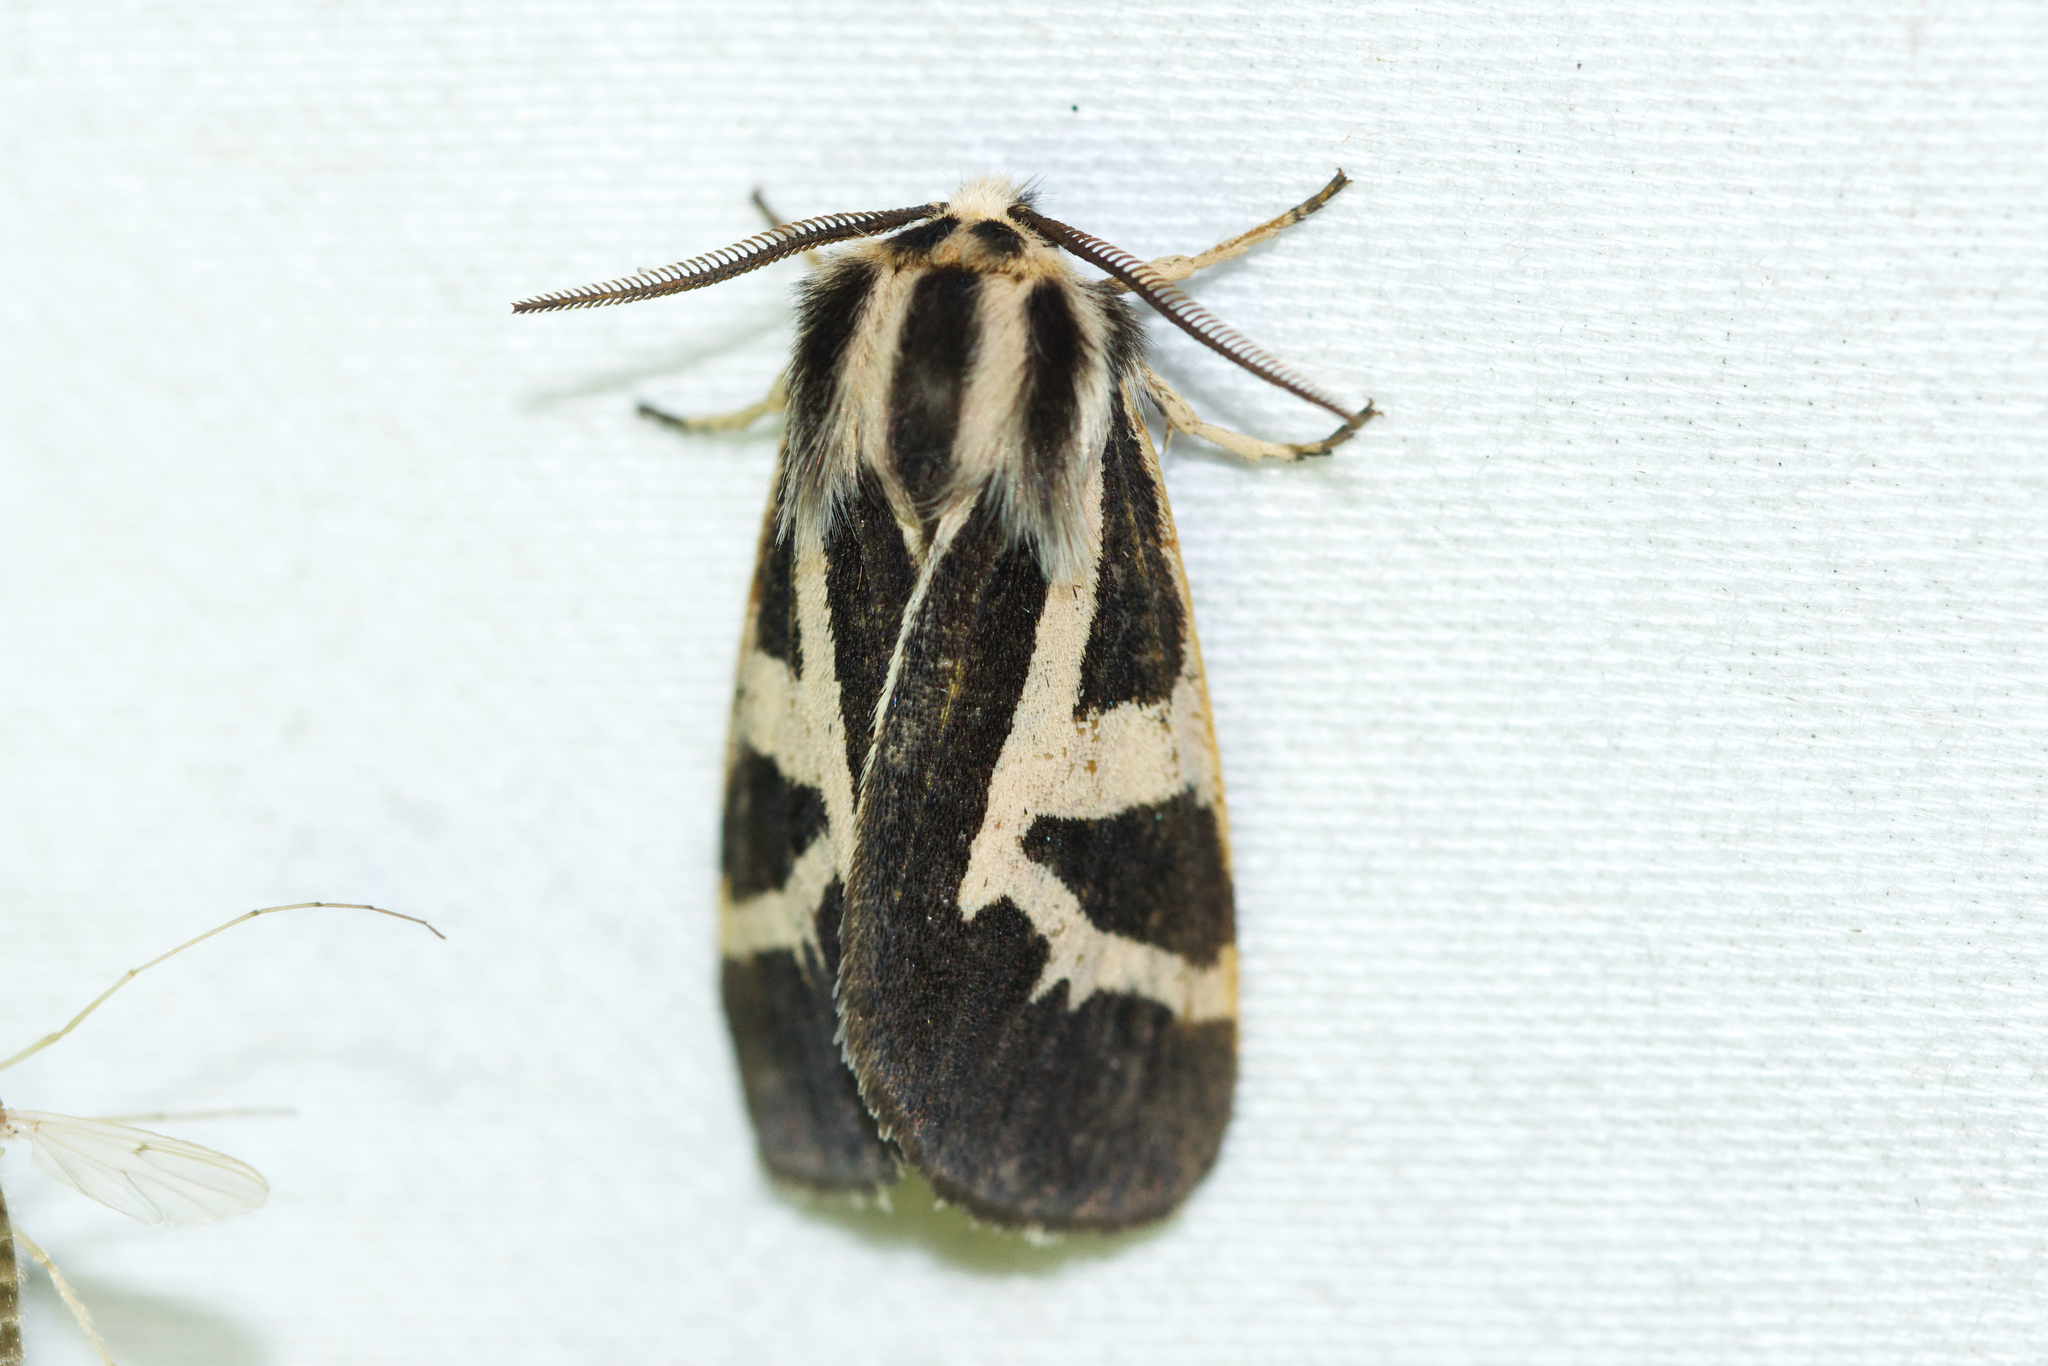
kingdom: Animalia
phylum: Arthropoda
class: Insecta
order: Lepidoptera
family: Erebidae
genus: Apantesis
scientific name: Apantesis
